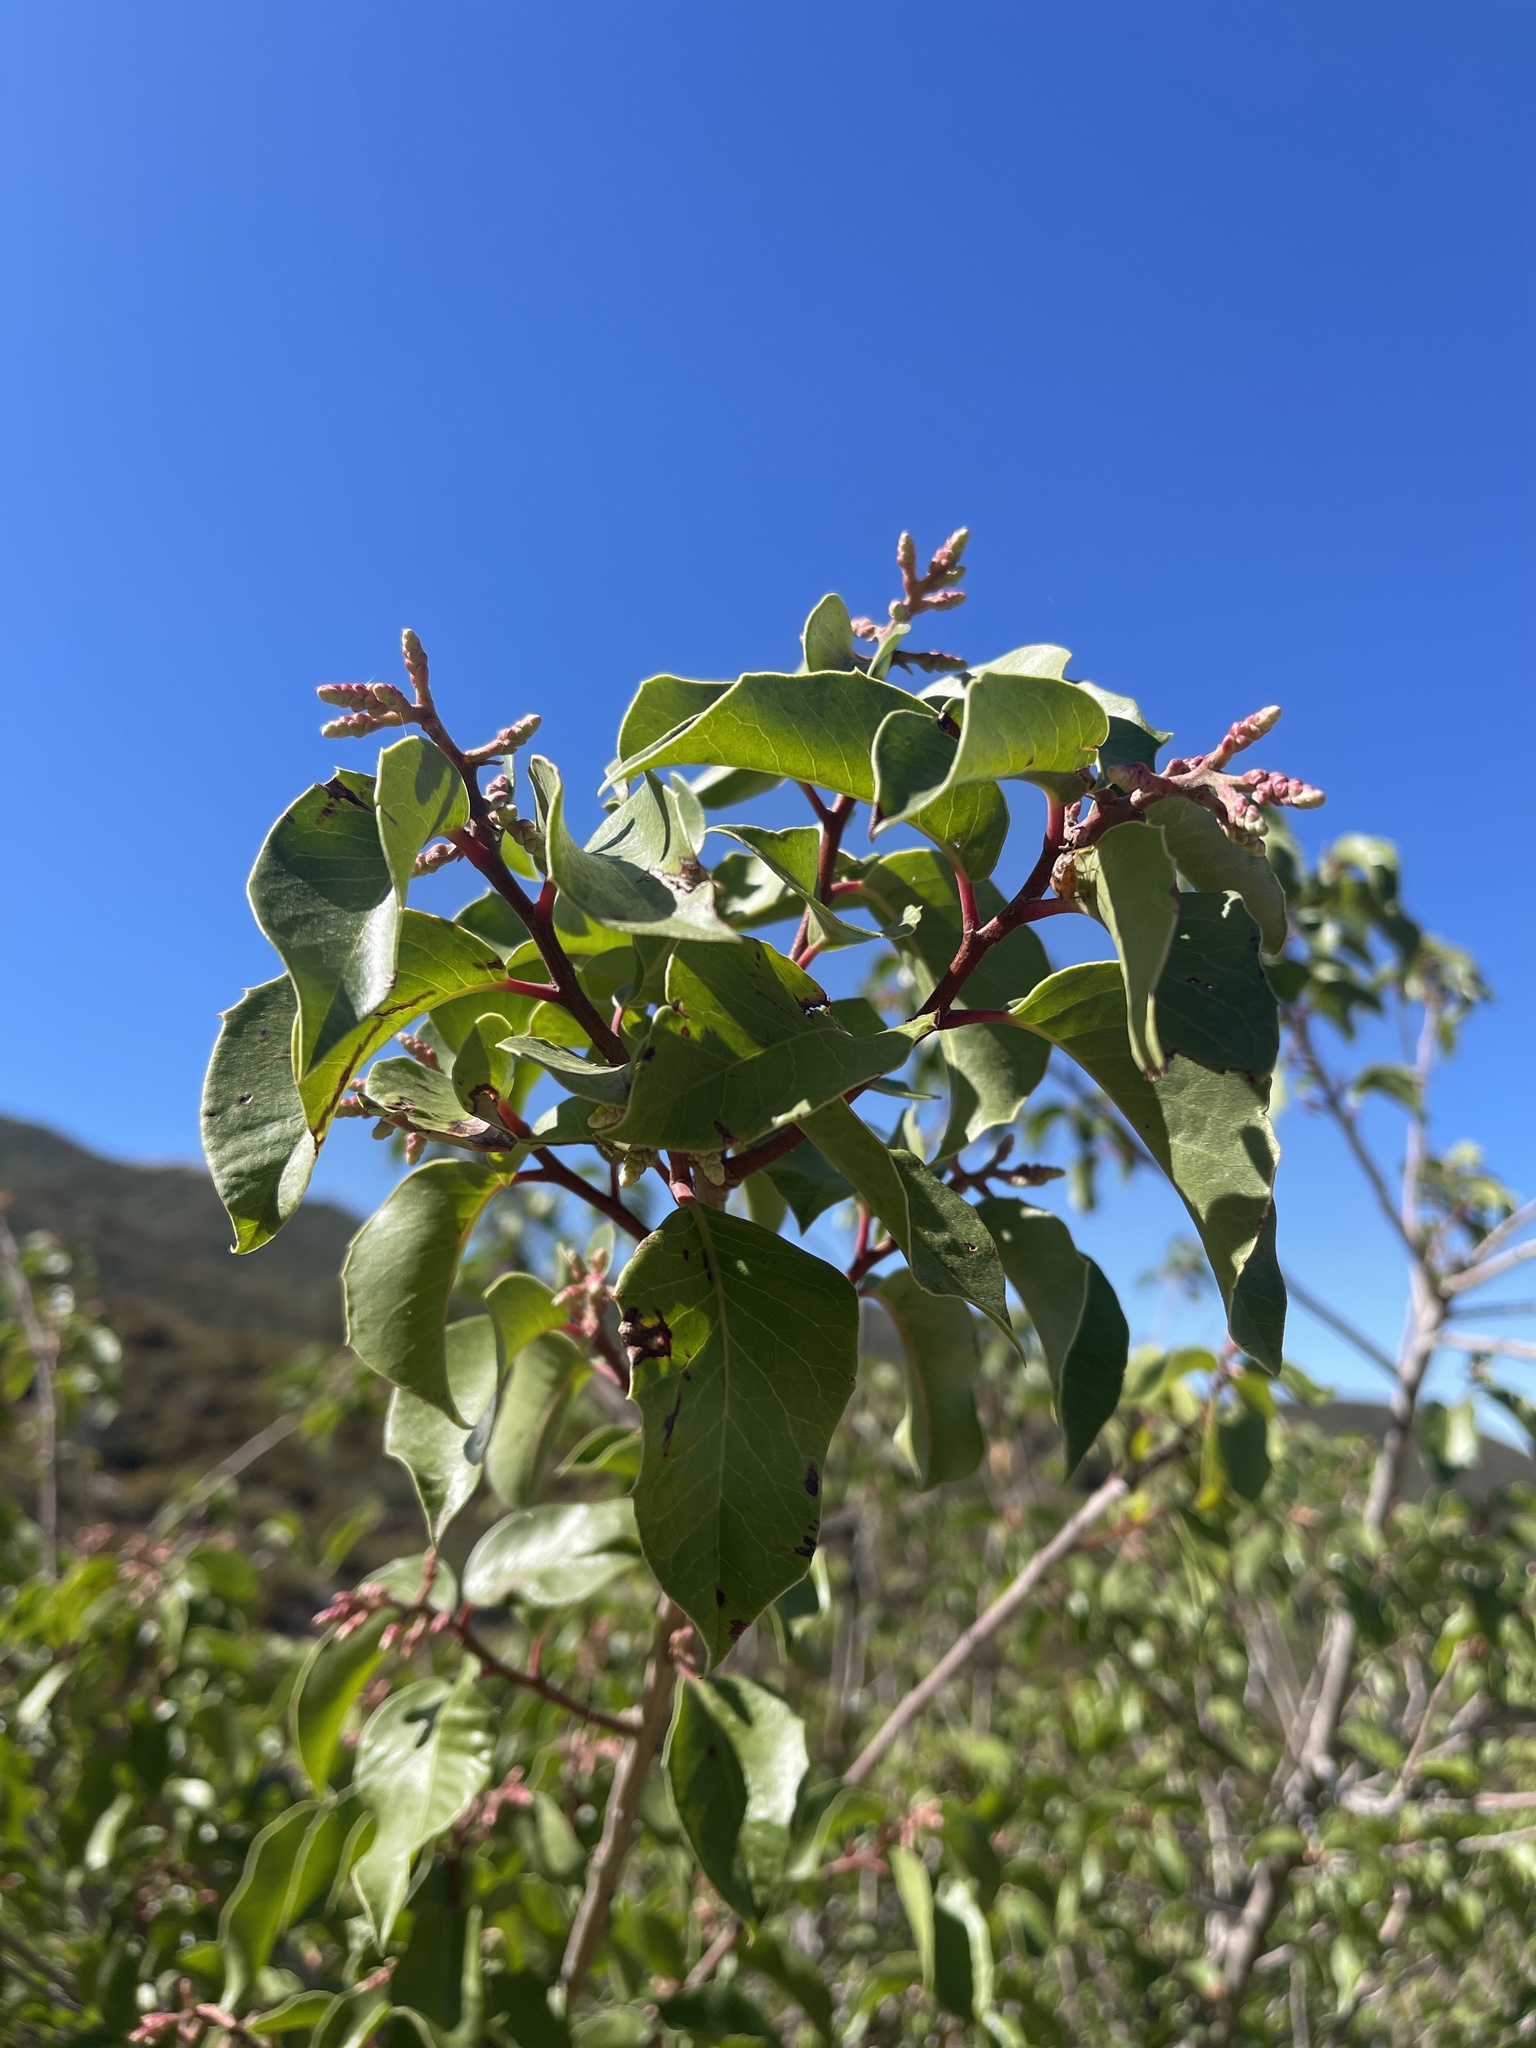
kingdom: Plantae
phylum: Tracheophyta
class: Magnoliopsida
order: Sapindales
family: Anacardiaceae
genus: Rhus
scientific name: Rhus ovata
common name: Sugar sumac
